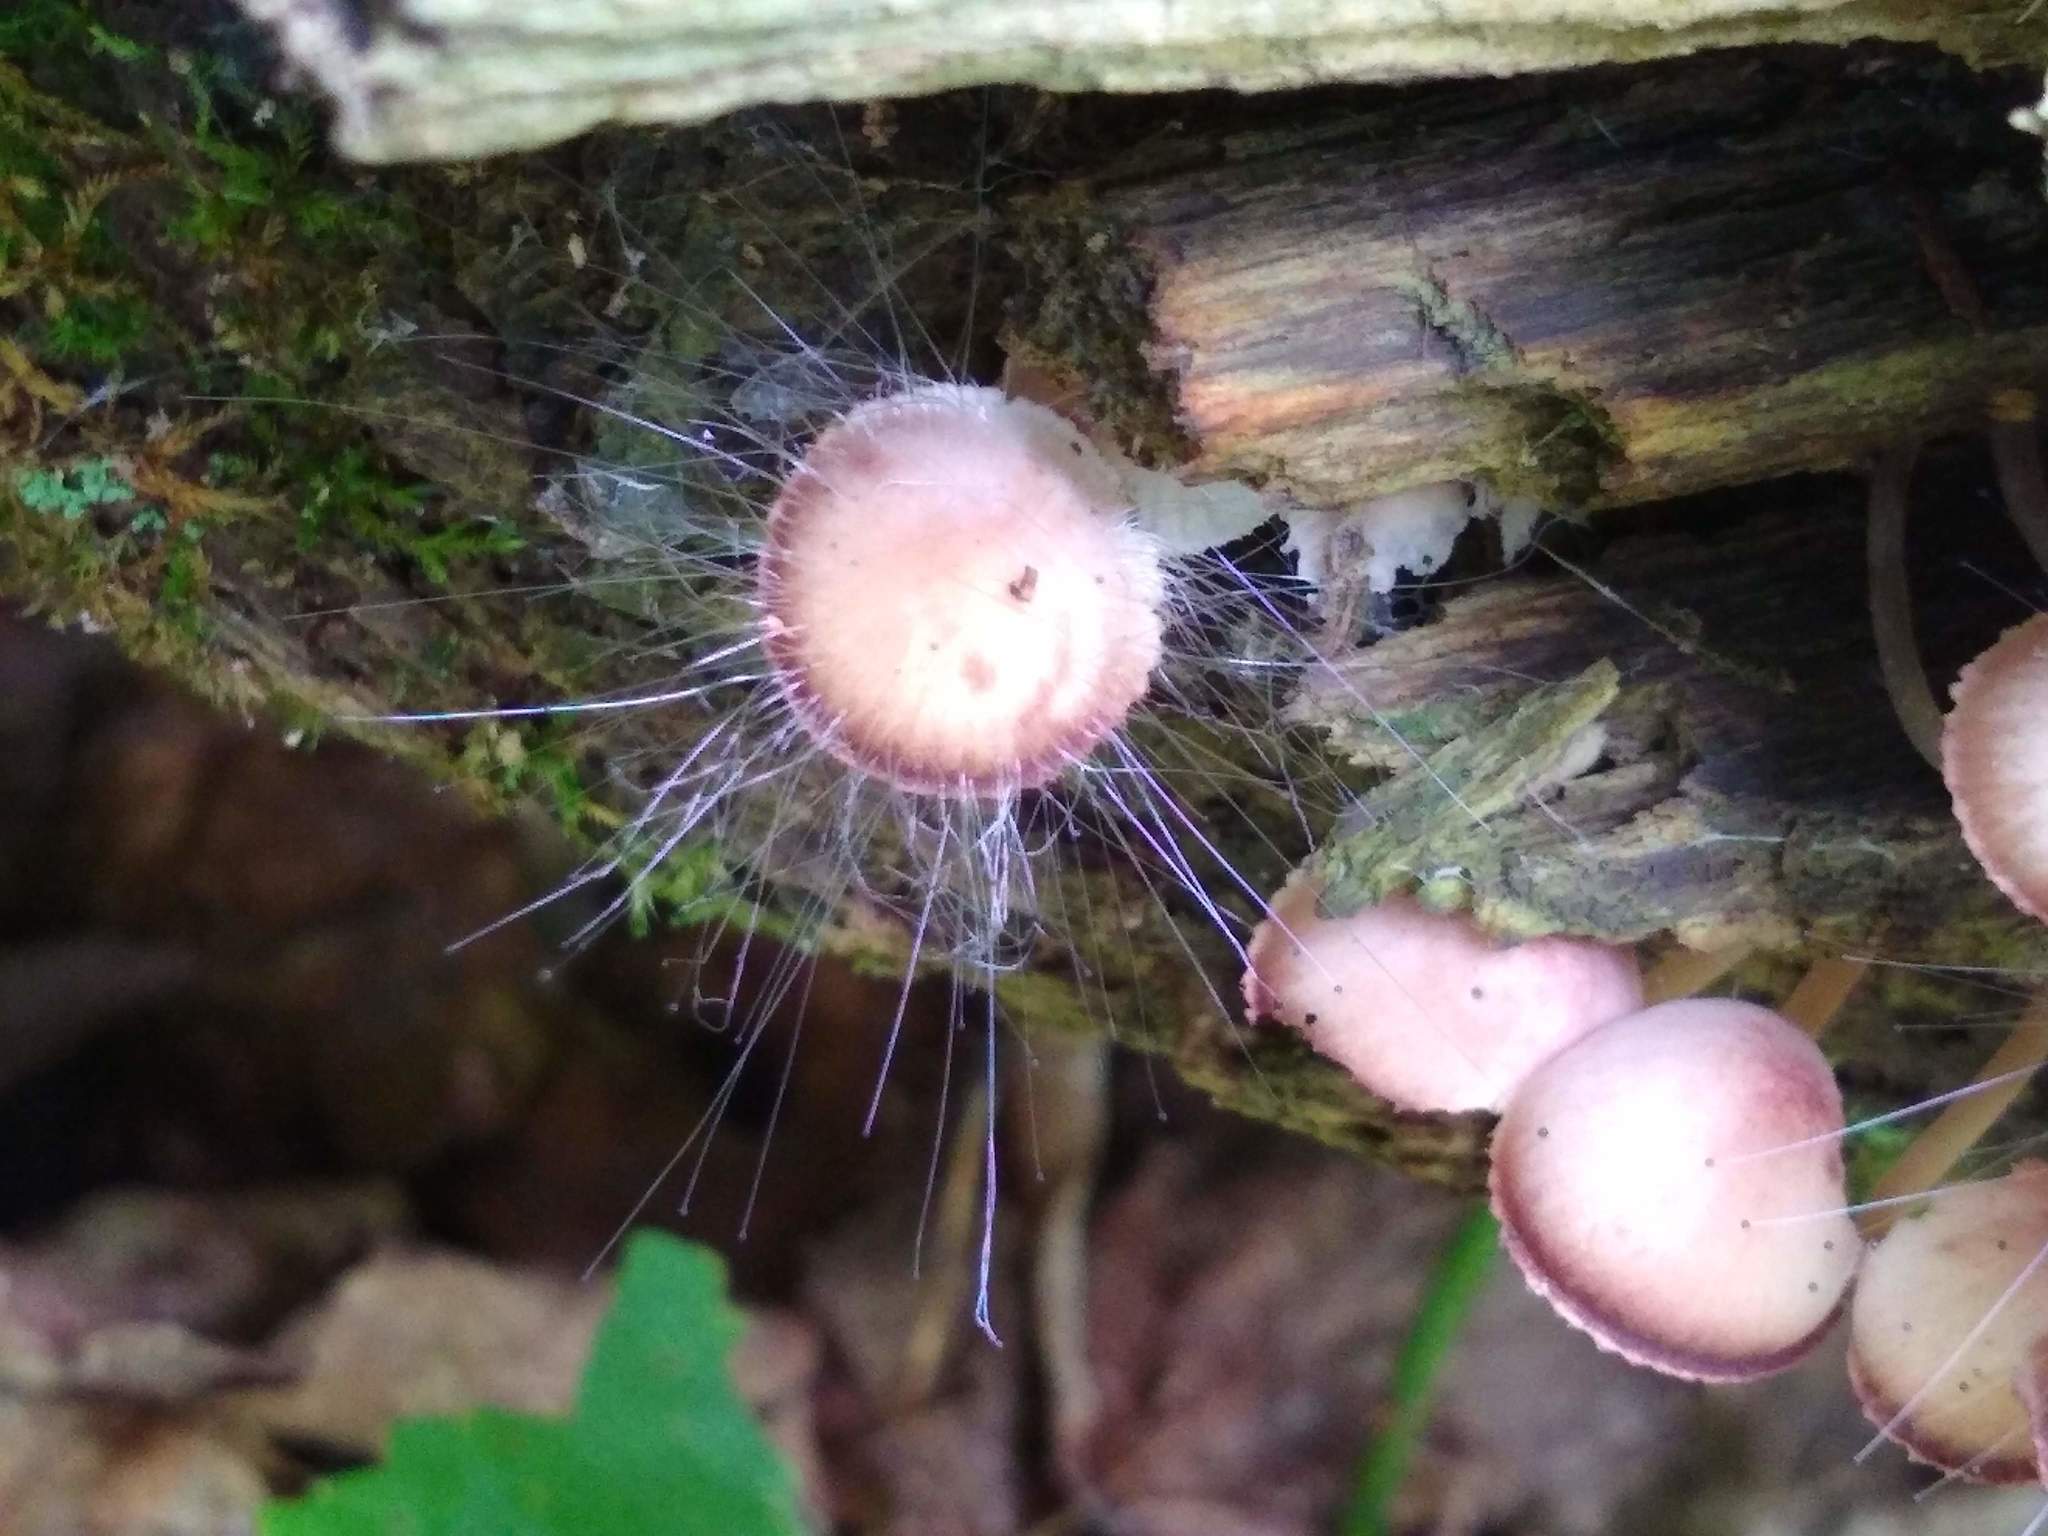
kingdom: Fungi
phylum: Mucoromycota
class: Mucoromycetes
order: Mucorales
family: Phycomycetaceae
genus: Spinellus
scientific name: Spinellus fusiger
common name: Bonnet mould
